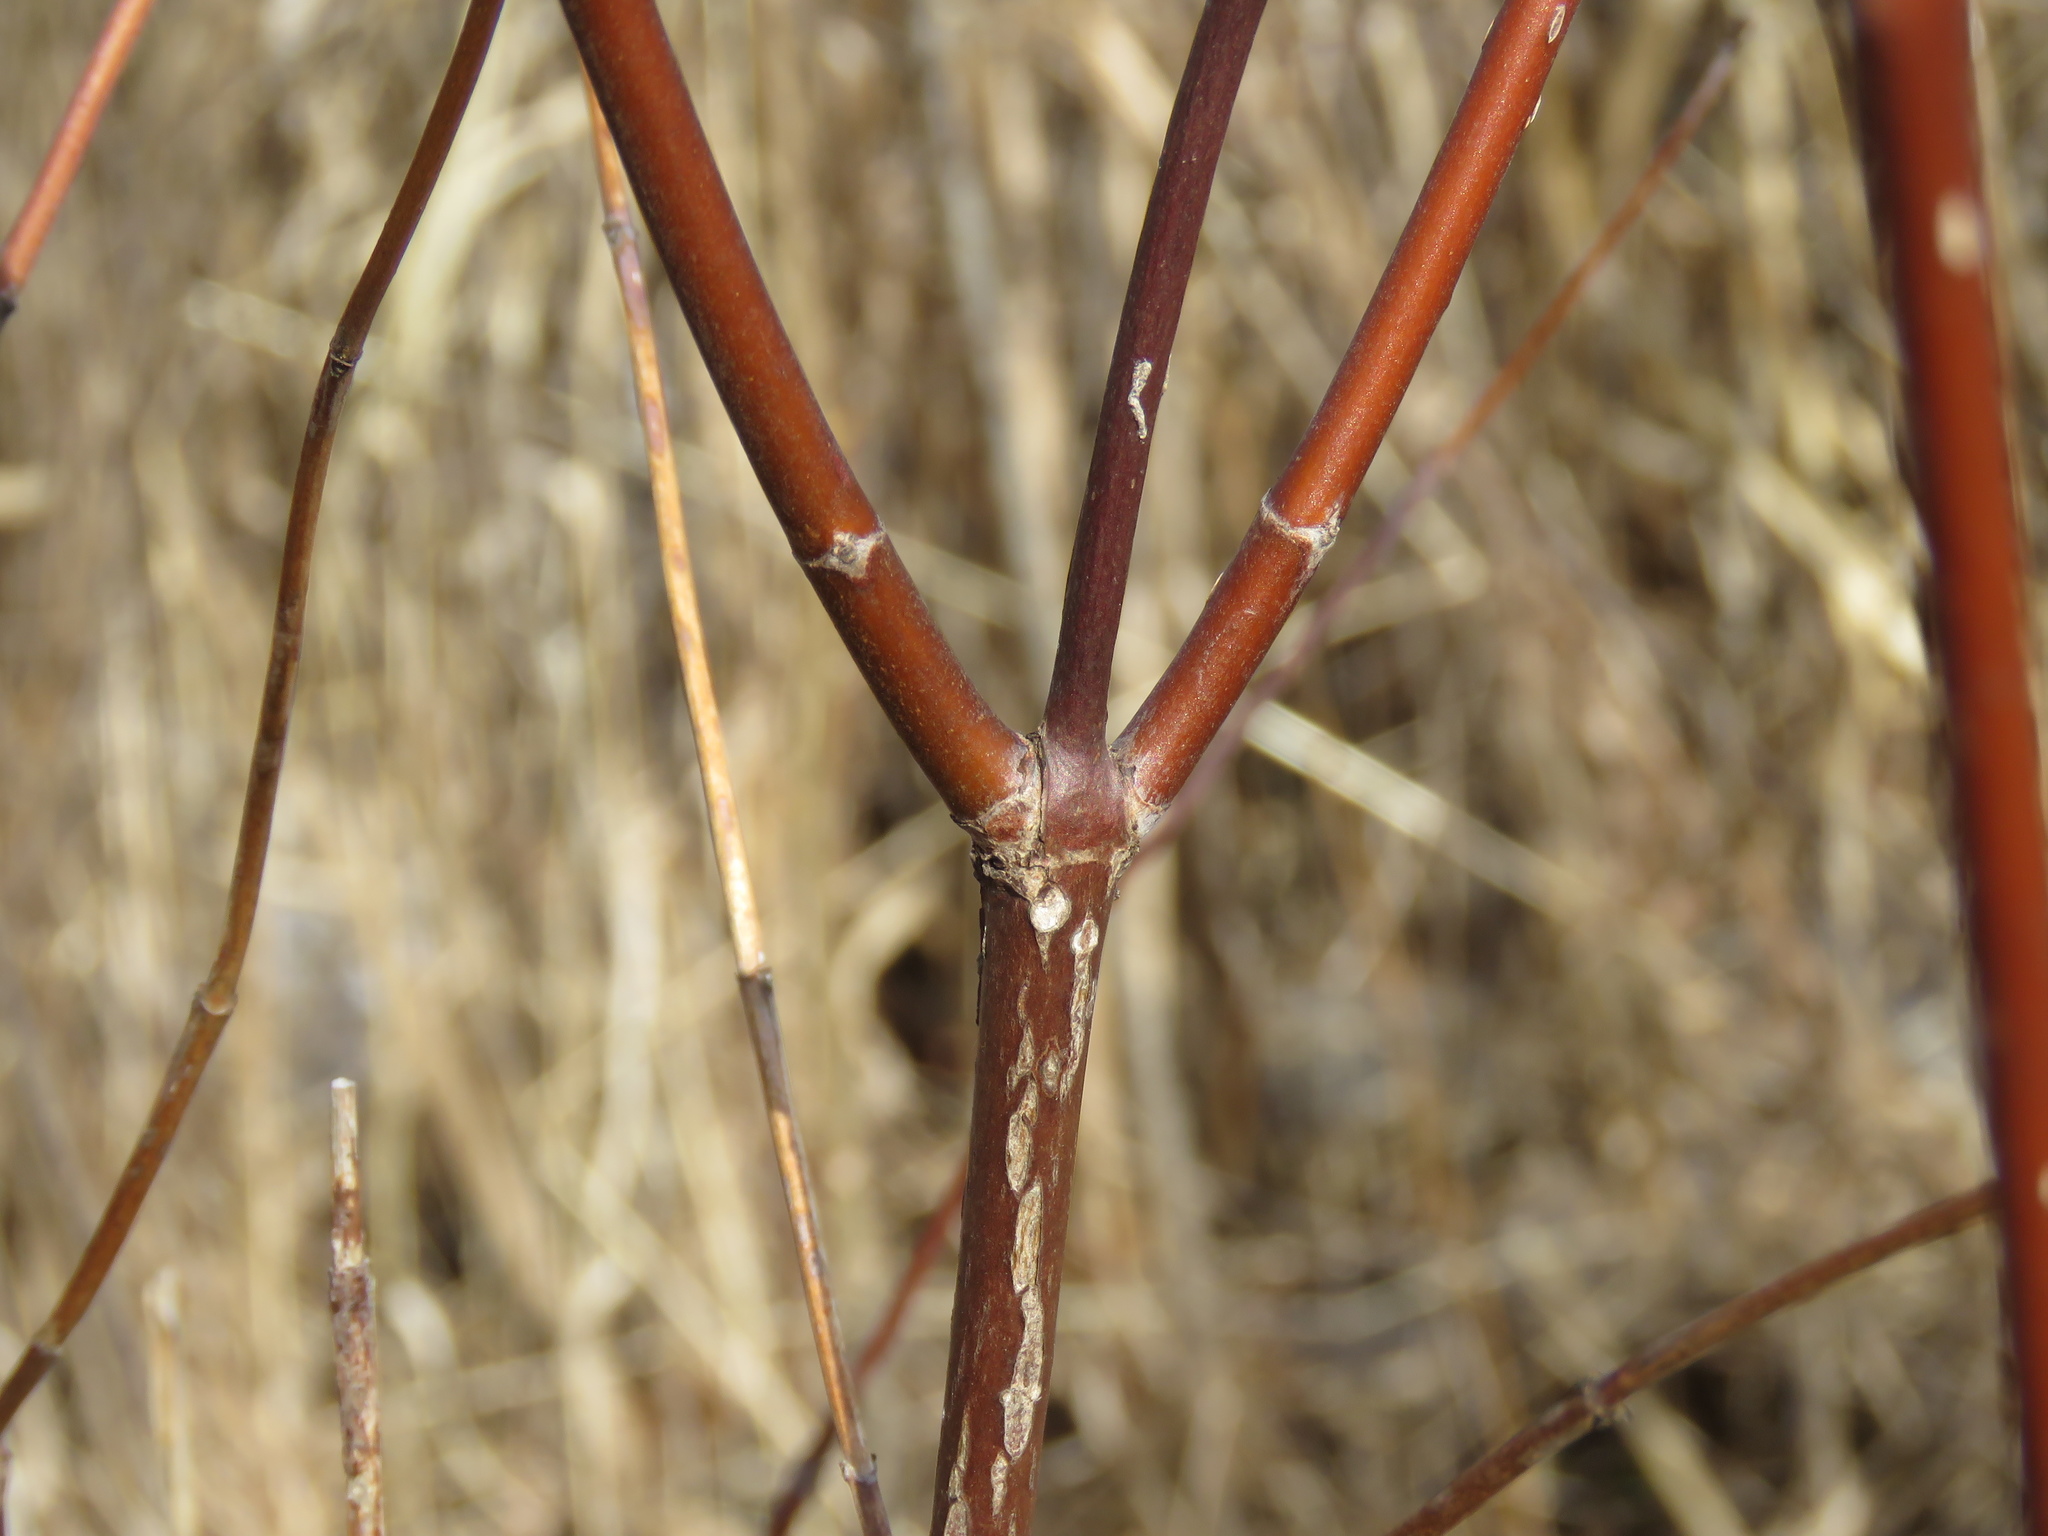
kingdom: Plantae
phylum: Tracheophyta
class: Magnoliopsida
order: Gentianales
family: Rubiaceae
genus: Cephalanthus
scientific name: Cephalanthus occidentalis
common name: Button-willow
